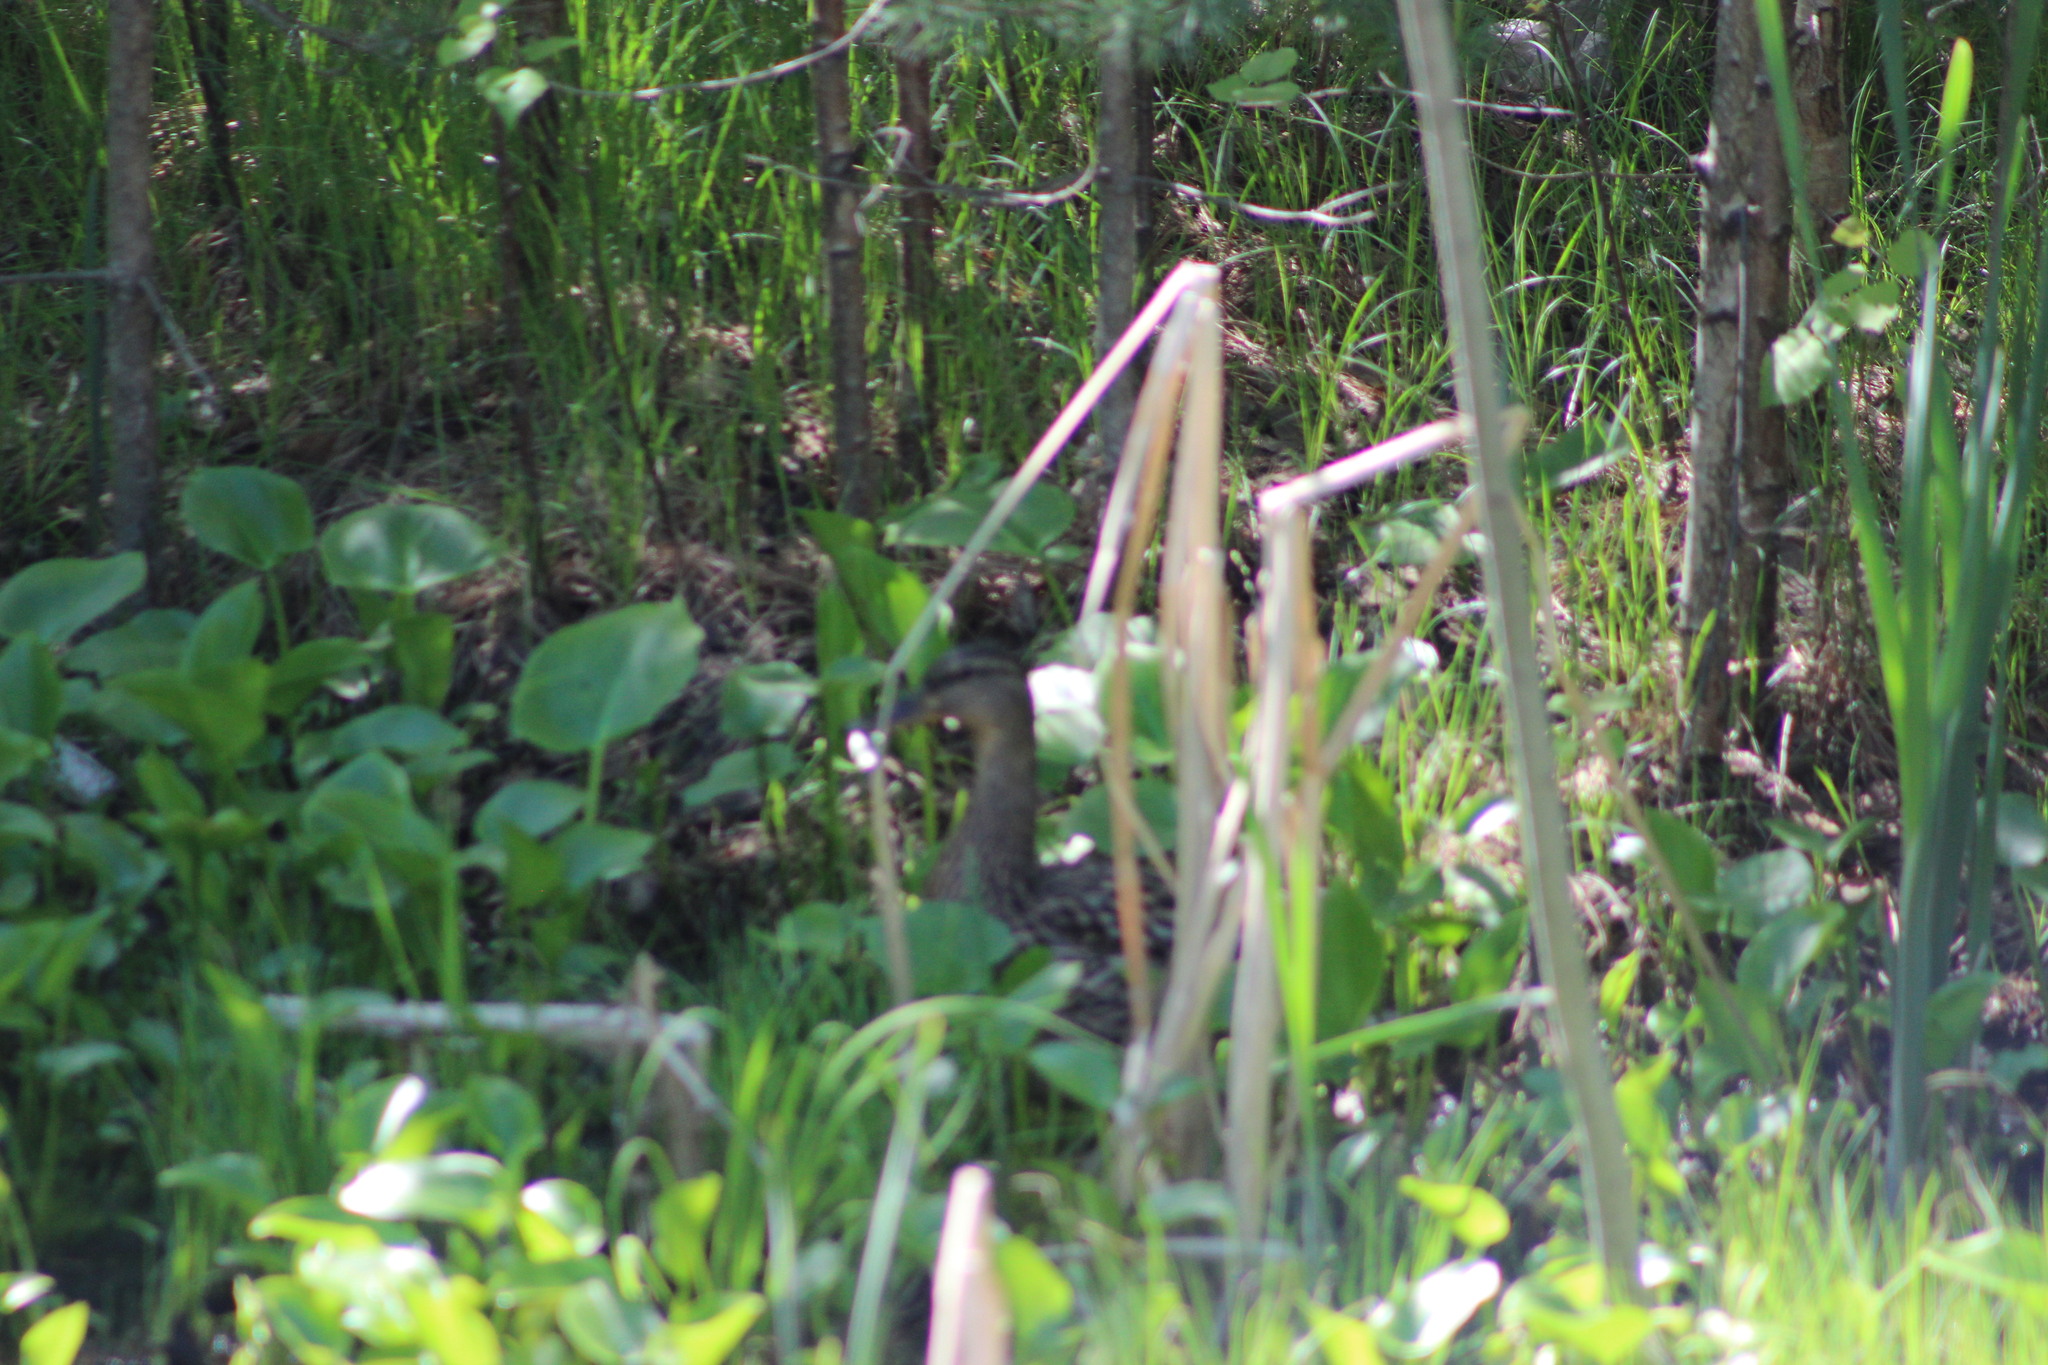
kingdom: Animalia
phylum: Chordata
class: Aves
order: Anseriformes
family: Anatidae
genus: Anas
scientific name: Anas platyrhynchos
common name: Mallard
